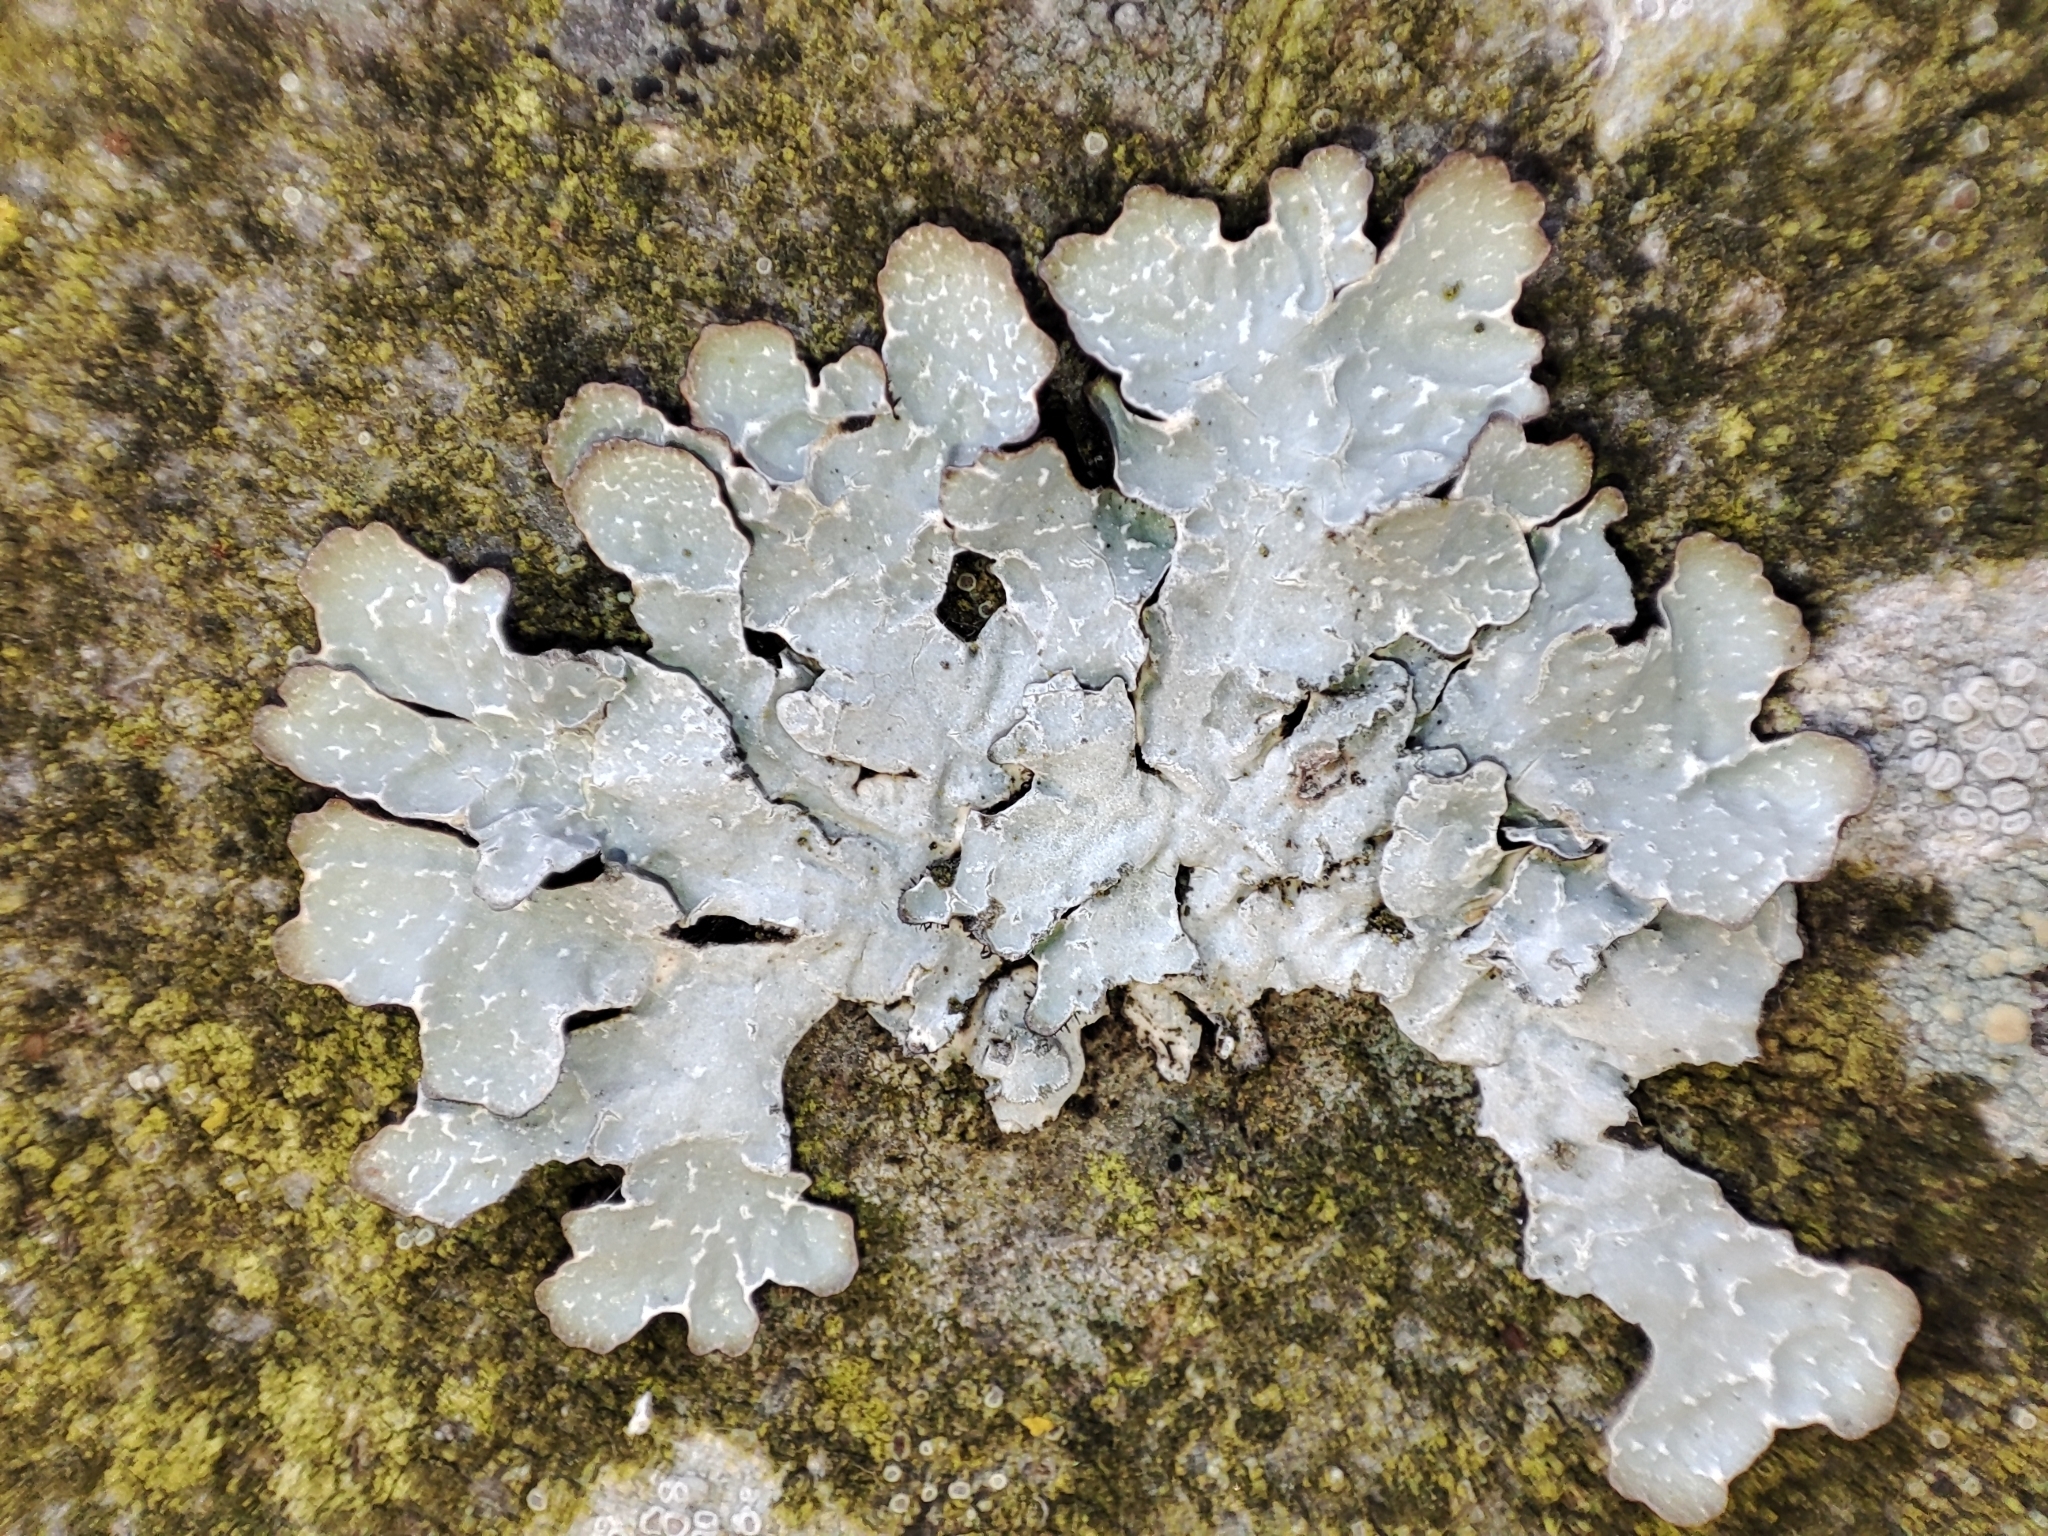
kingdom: Fungi
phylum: Ascomycota
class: Lecanoromycetes
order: Lecanorales
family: Parmeliaceae
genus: Parmelia
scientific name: Parmelia sulcata
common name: Netted shield lichen
